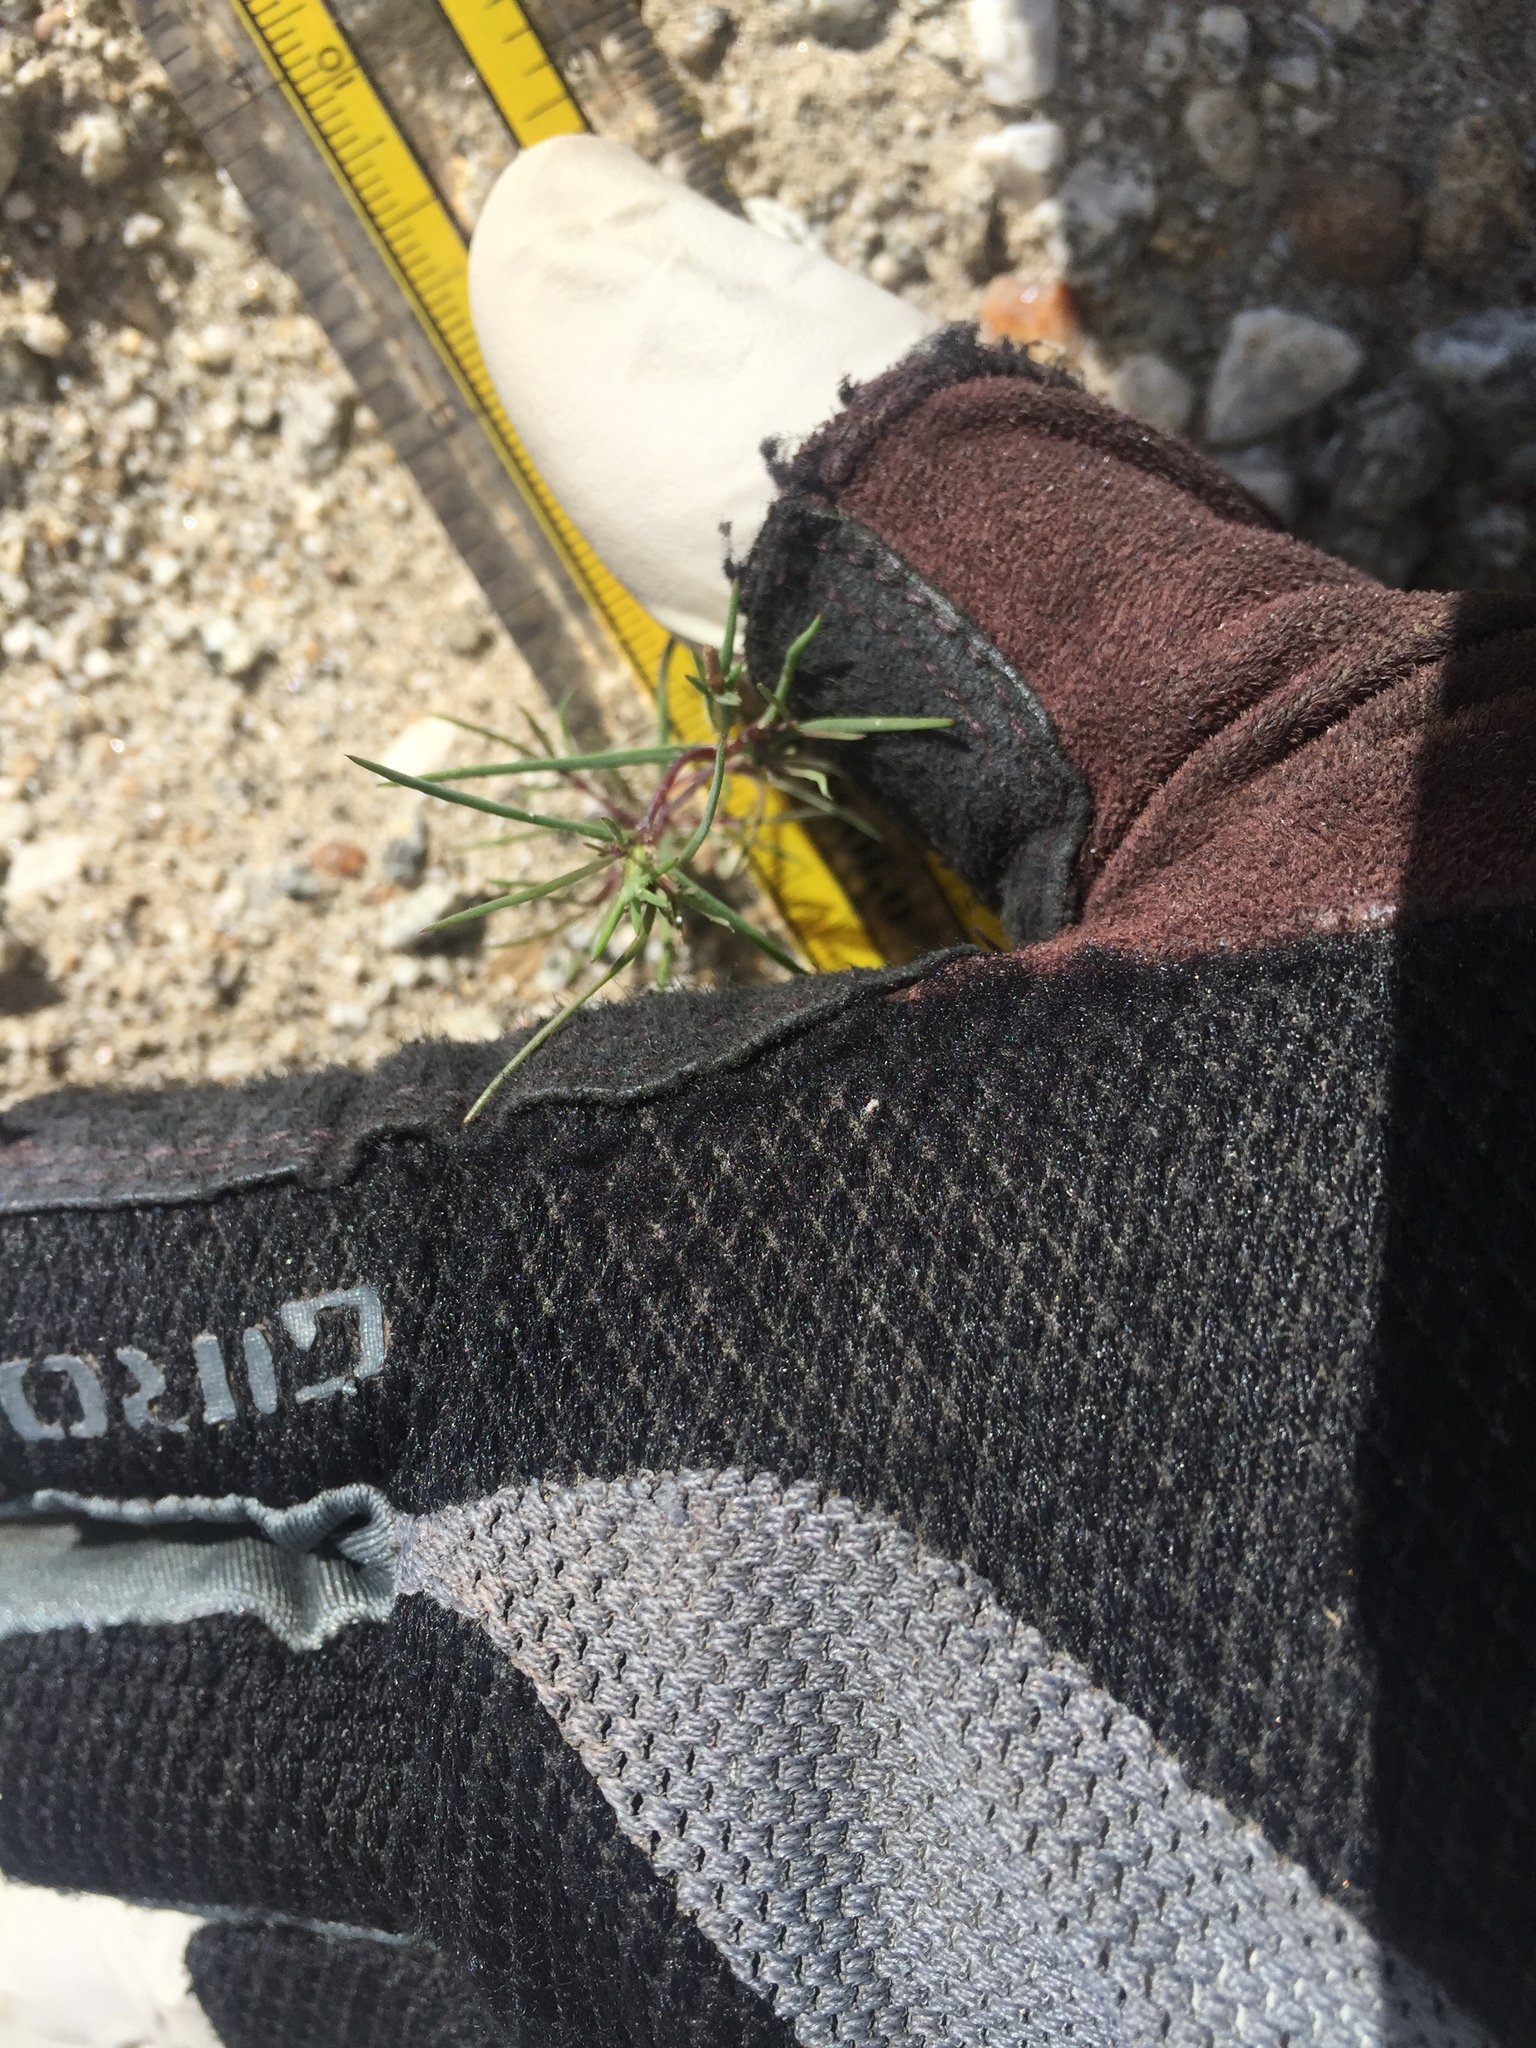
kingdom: Plantae
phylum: Tracheophyta
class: Magnoliopsida
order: Ericales
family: Polemoniaceae
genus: Linanthus
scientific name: Linanthus jonesii
